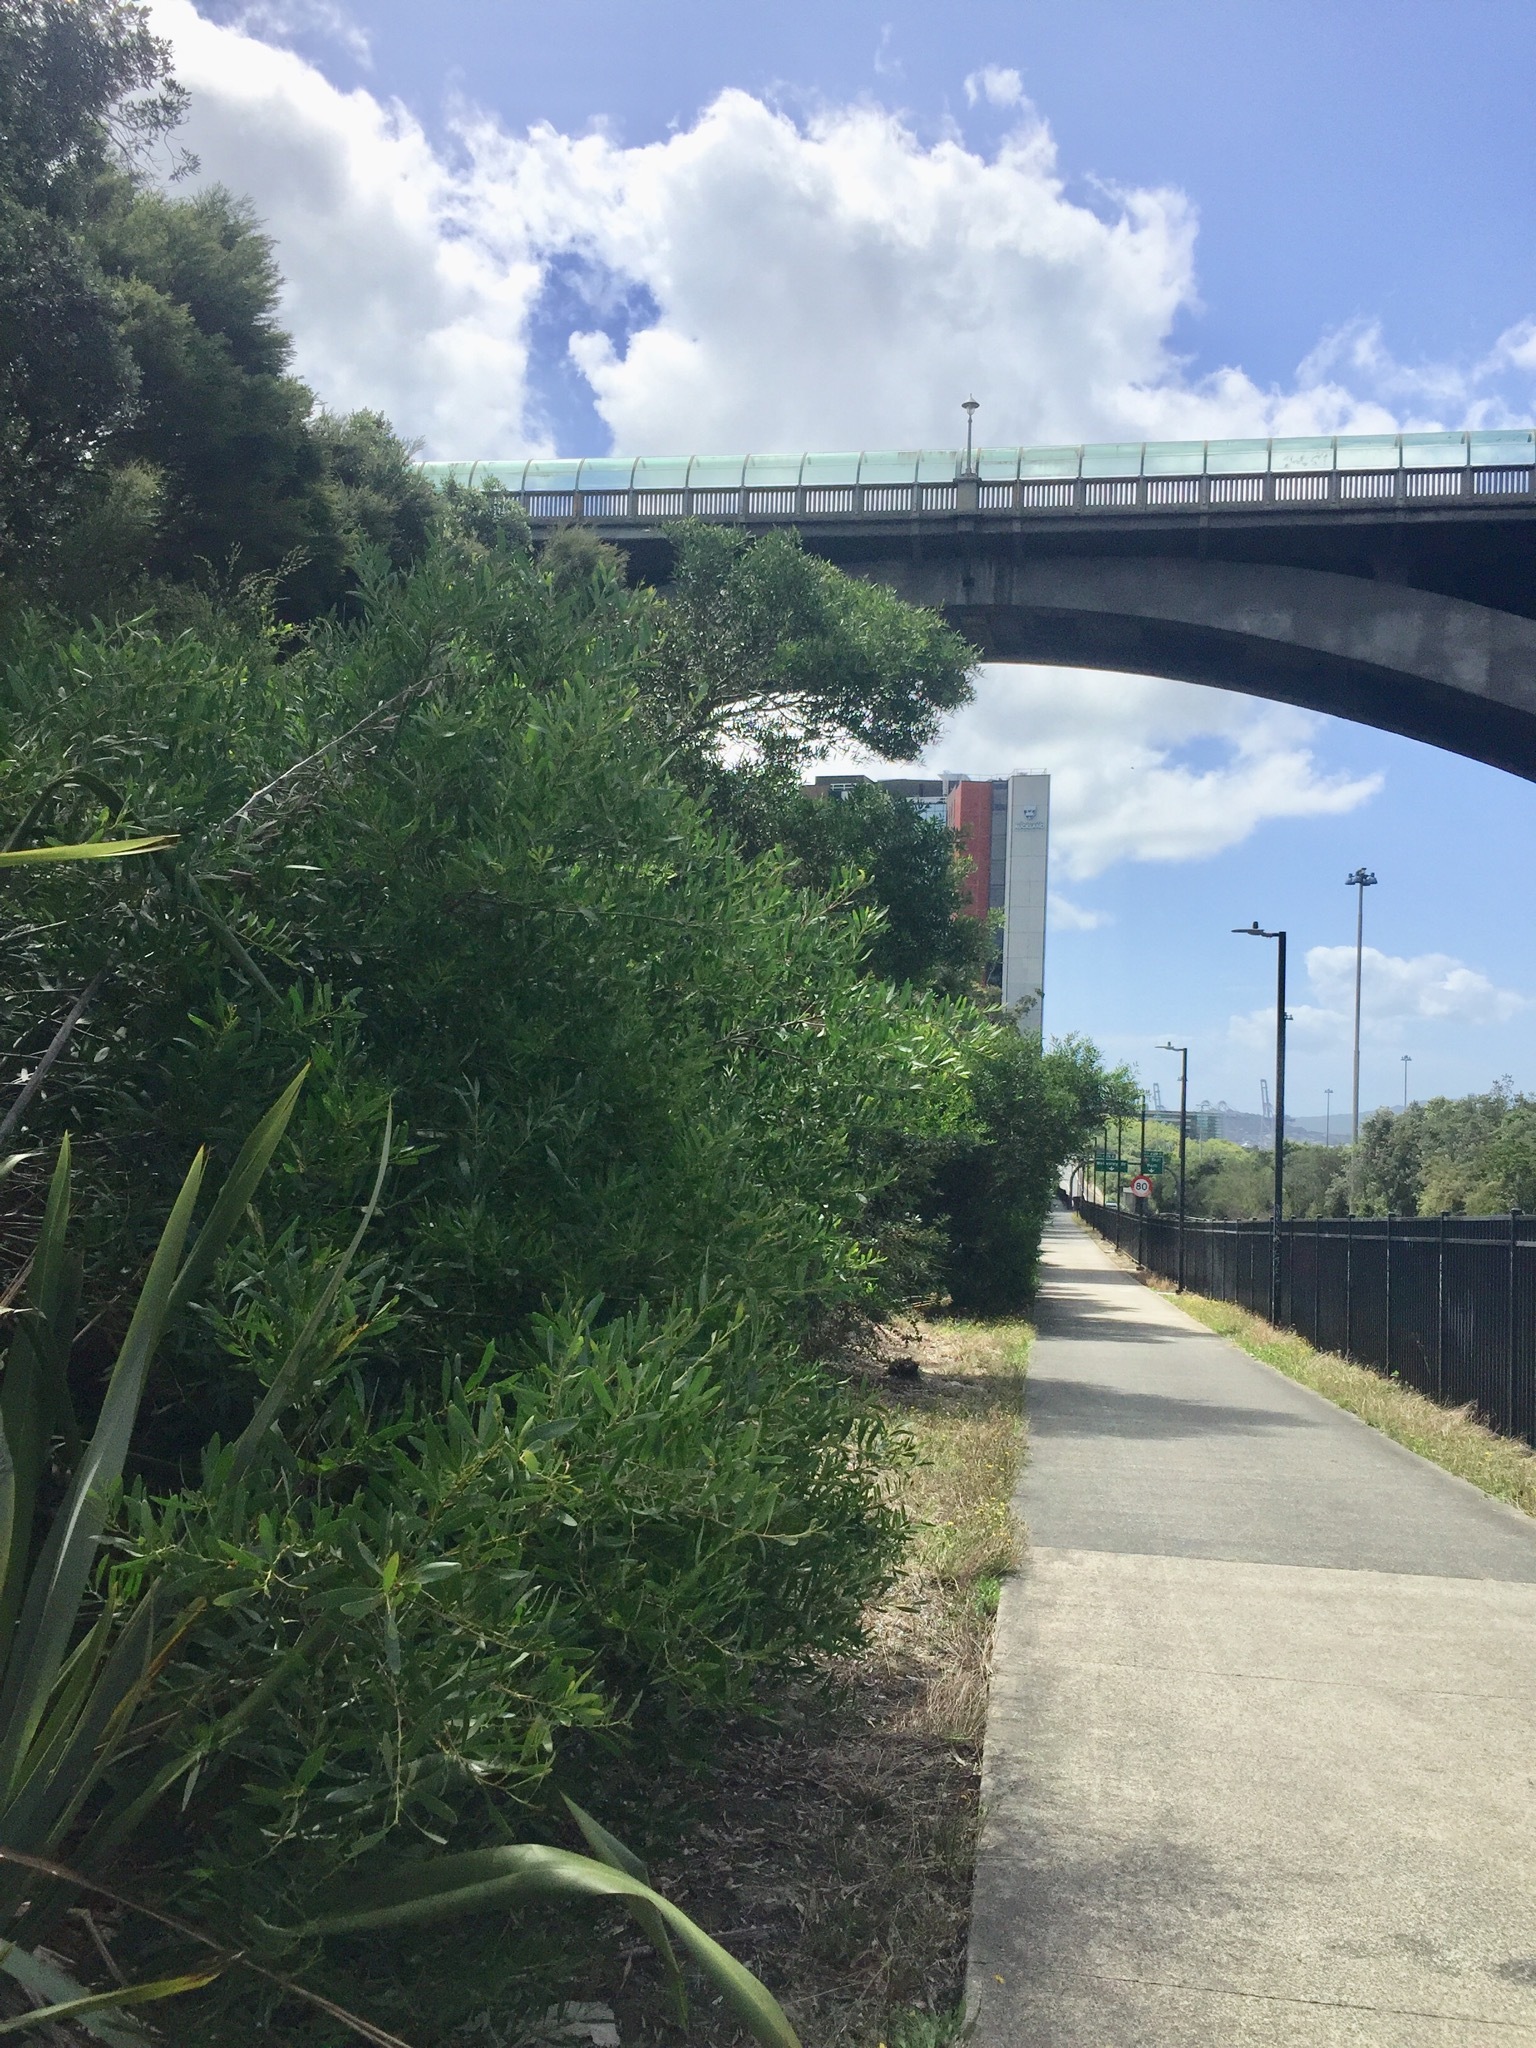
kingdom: Animalia
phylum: Arthropoda
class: Insecta
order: Coleoptera
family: Curculionidae
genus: Epamoebus
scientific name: Epamoebus ziczac
